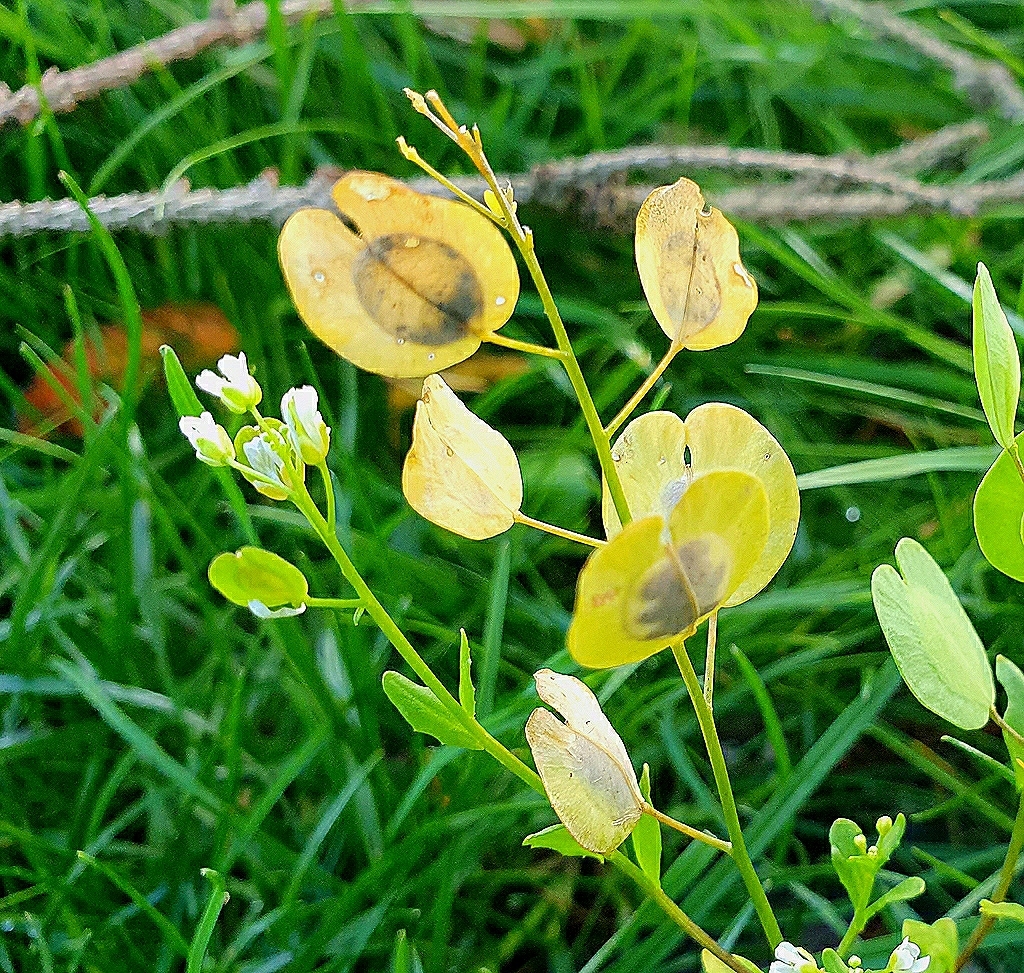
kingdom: Plantae
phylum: Tracheophyta
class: Magnoliopsida
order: Brassicales
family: Brassicaceae
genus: Thlaspi
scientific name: Thlaspi arvense
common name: Field pennycress
